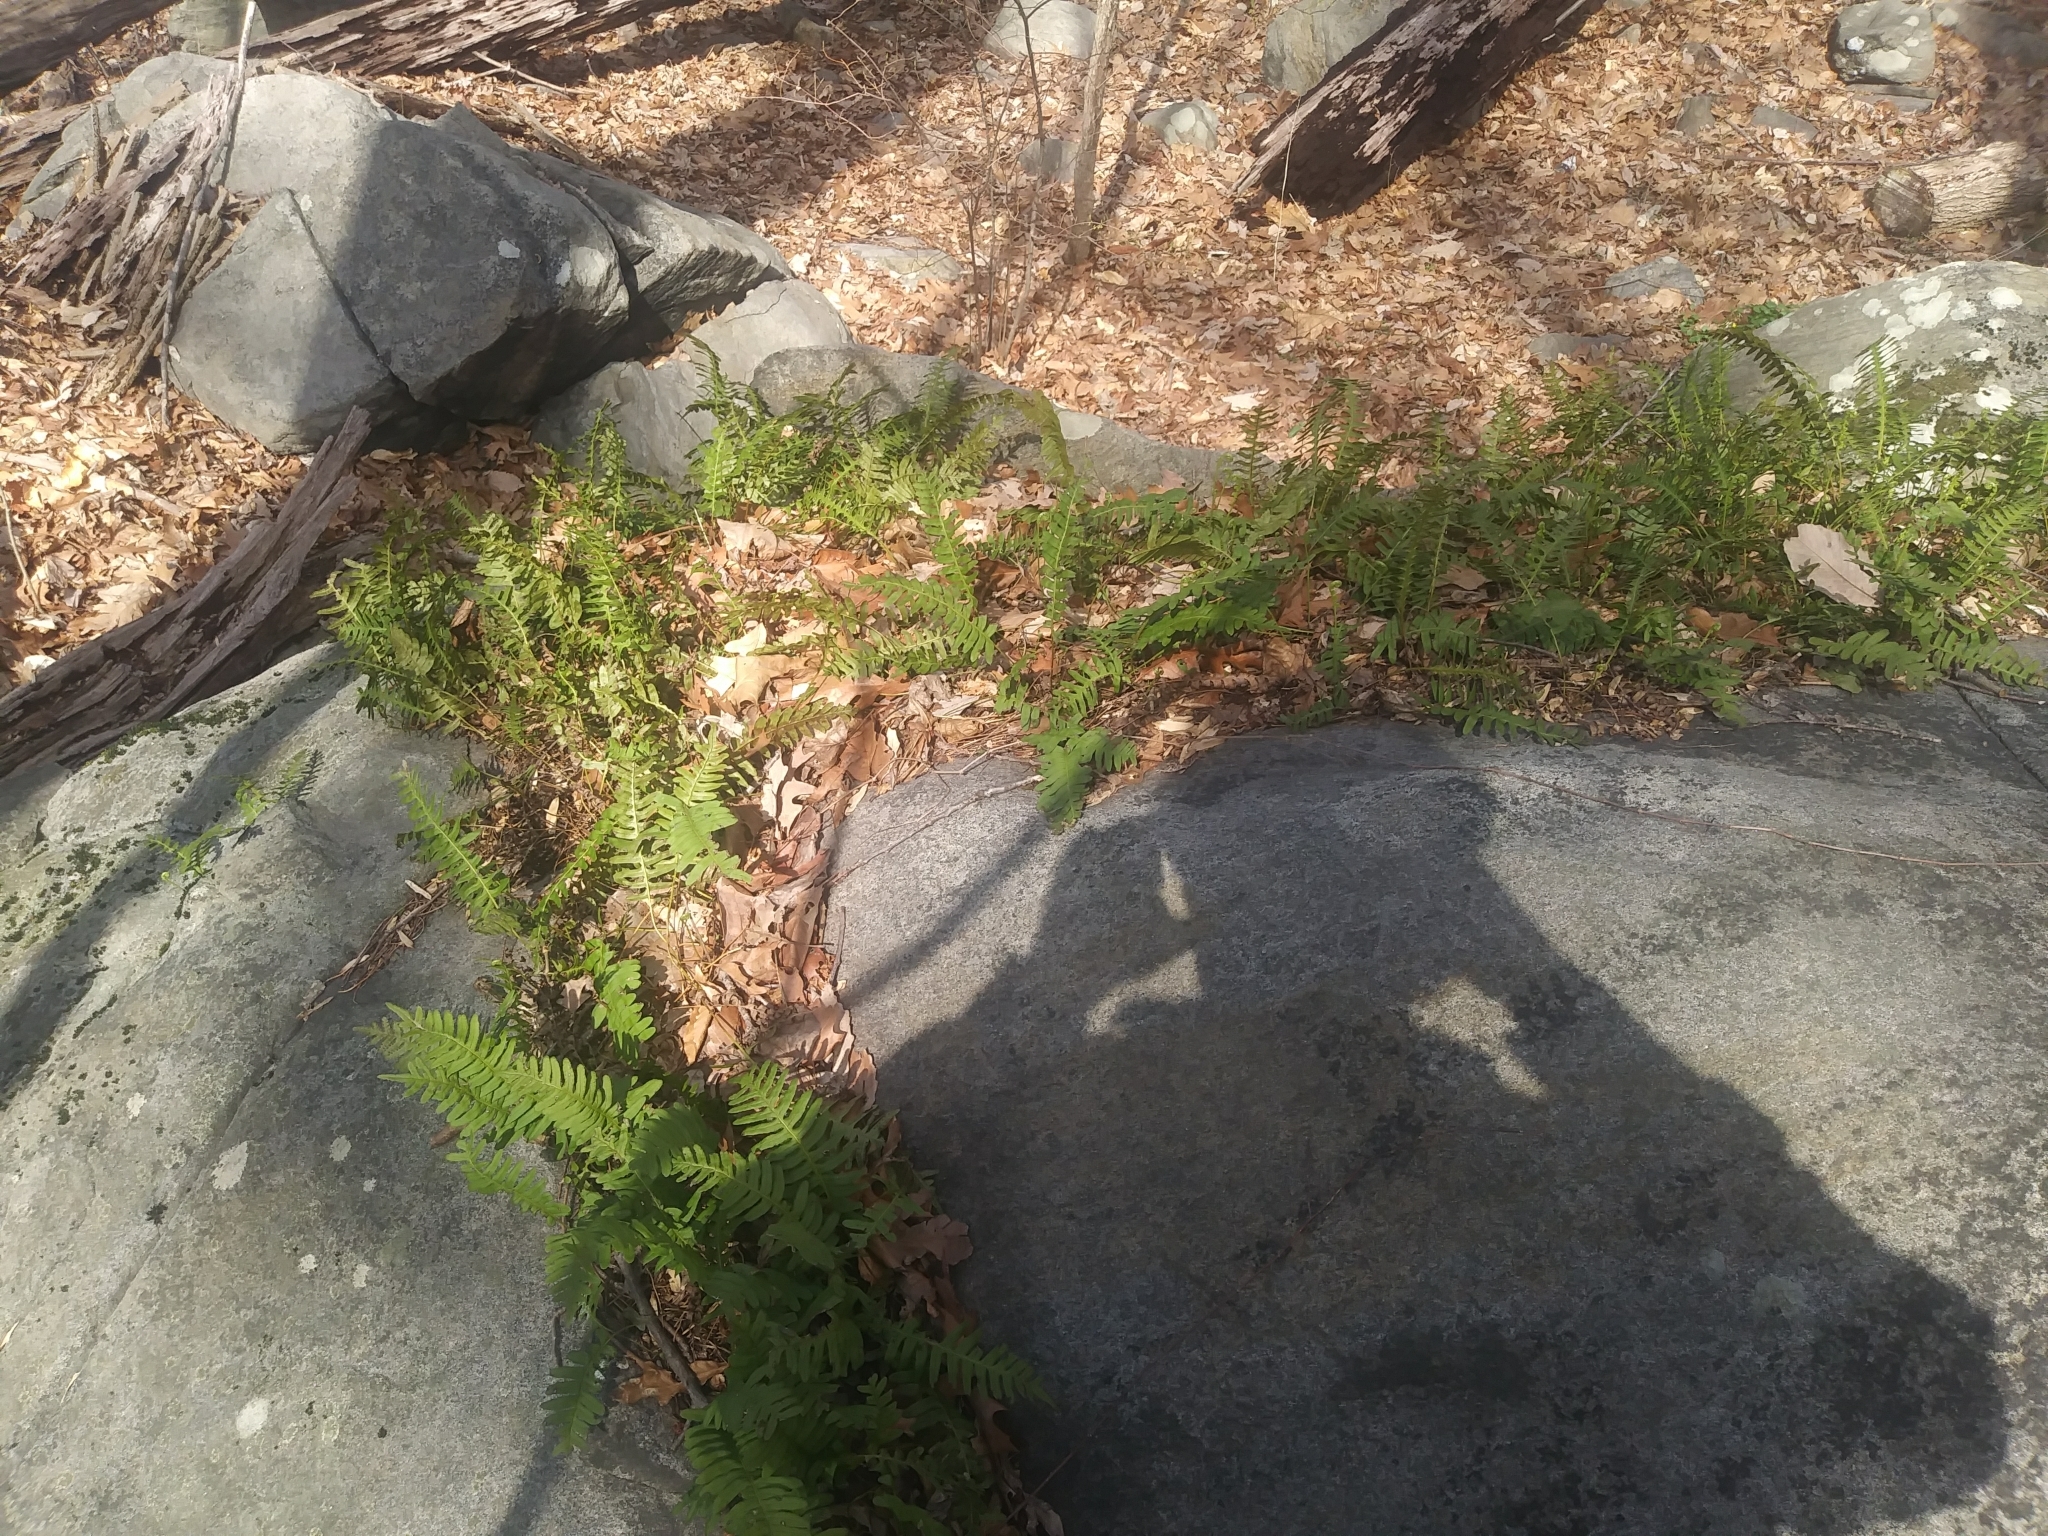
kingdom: Plantae
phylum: Tracheophyta
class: Polypodiopsida
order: Polypodiales
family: Polypodiaceae
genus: Polypodium
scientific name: Polypodium virginianum
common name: American wall fern
